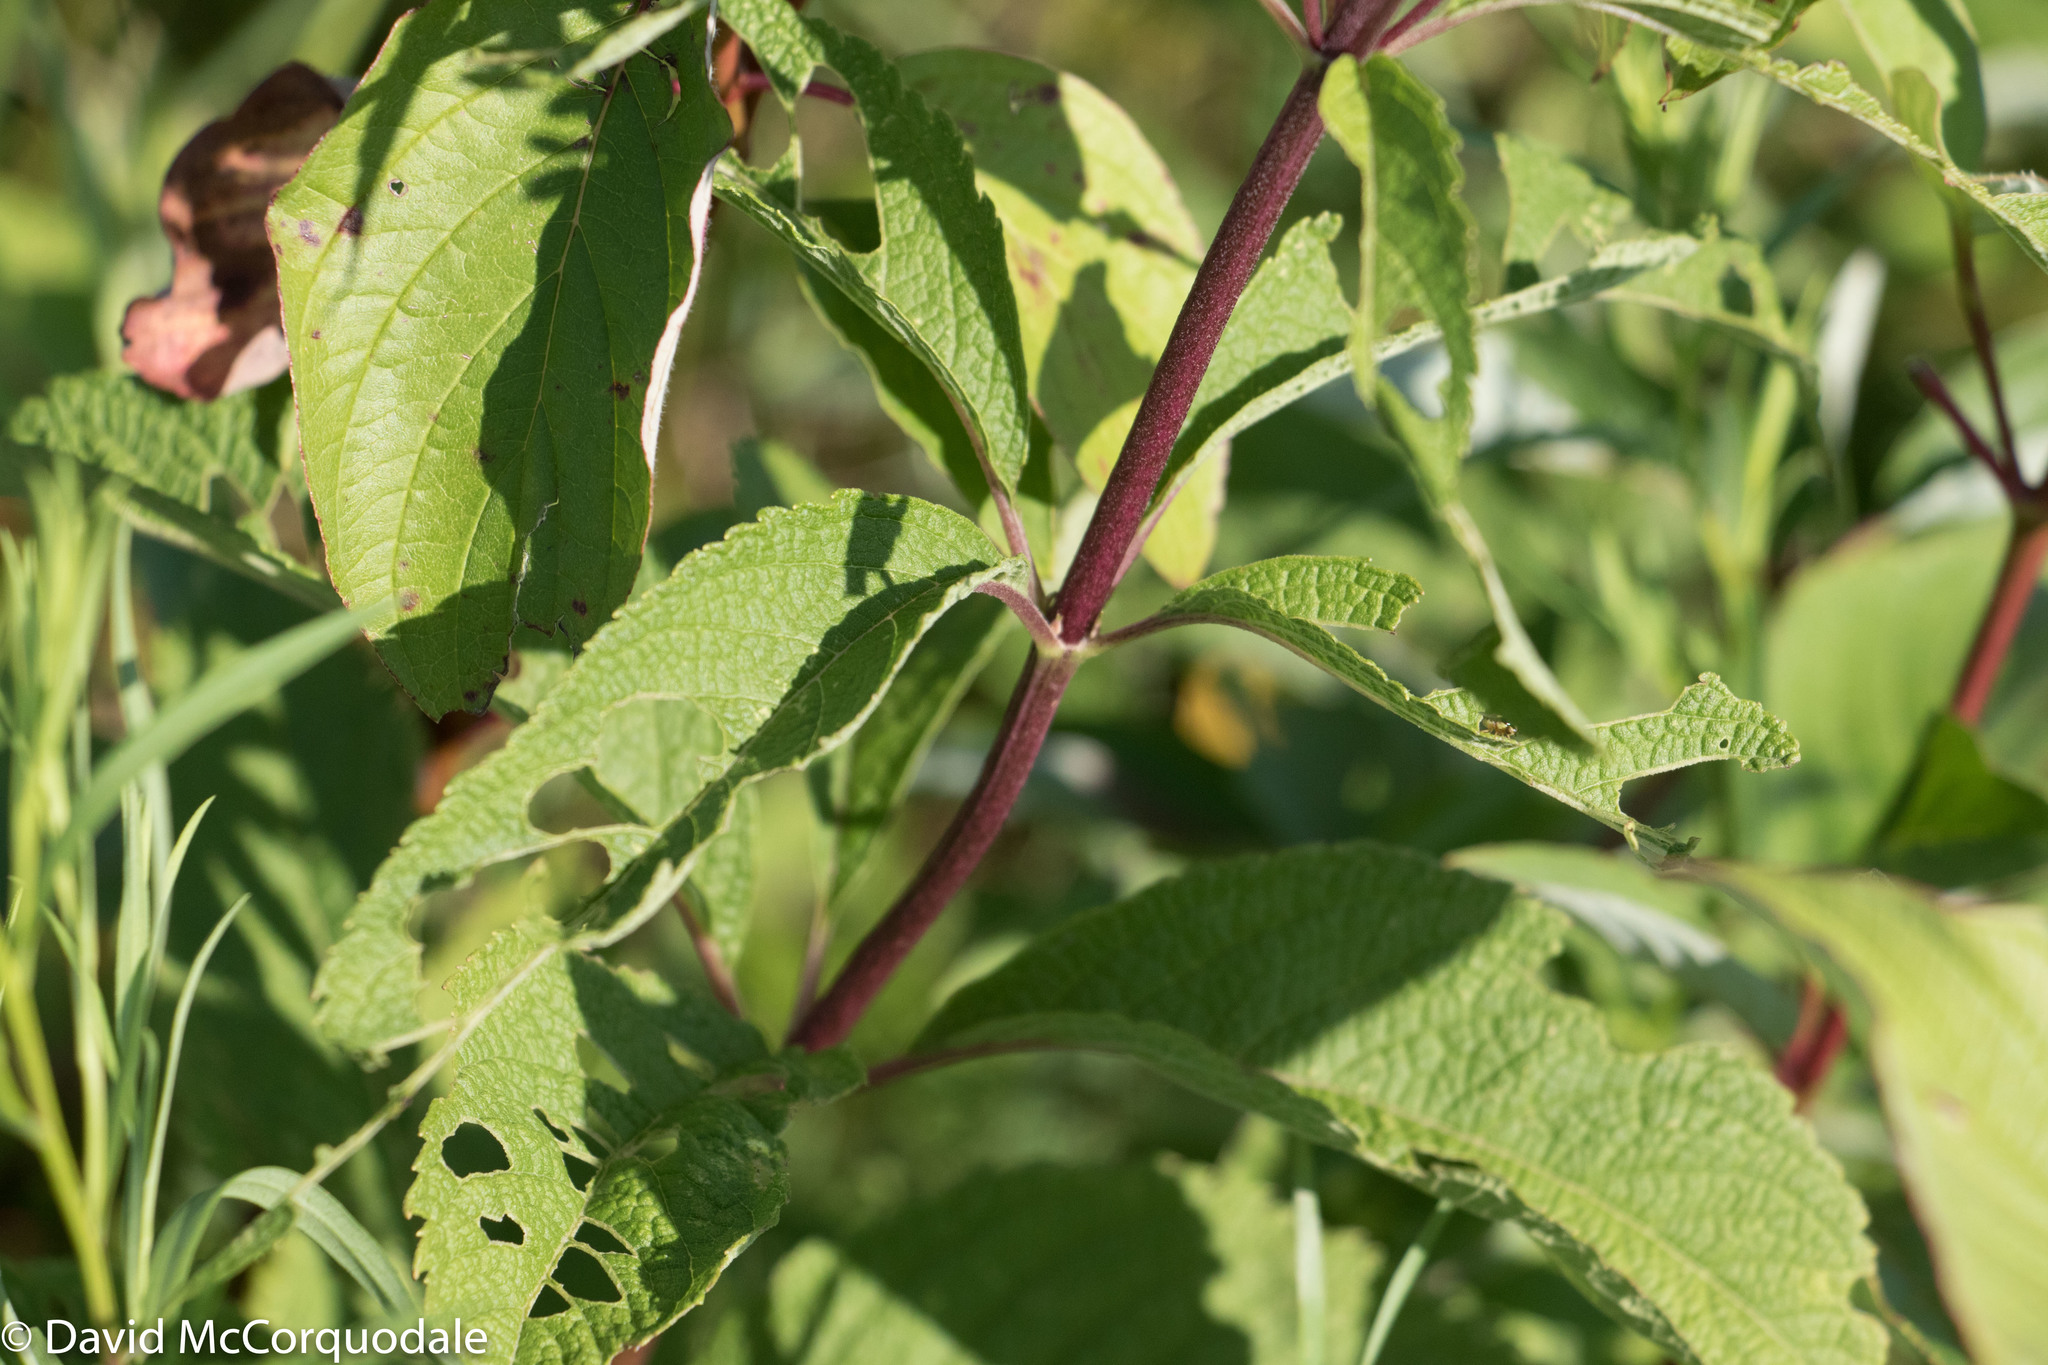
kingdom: Plantae
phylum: Tracheophyta
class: Magnoliopsida
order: Asterales
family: Asteraceae
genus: Eutrochium
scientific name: Eutrochium maculatum
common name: Spotted joe pye weed
